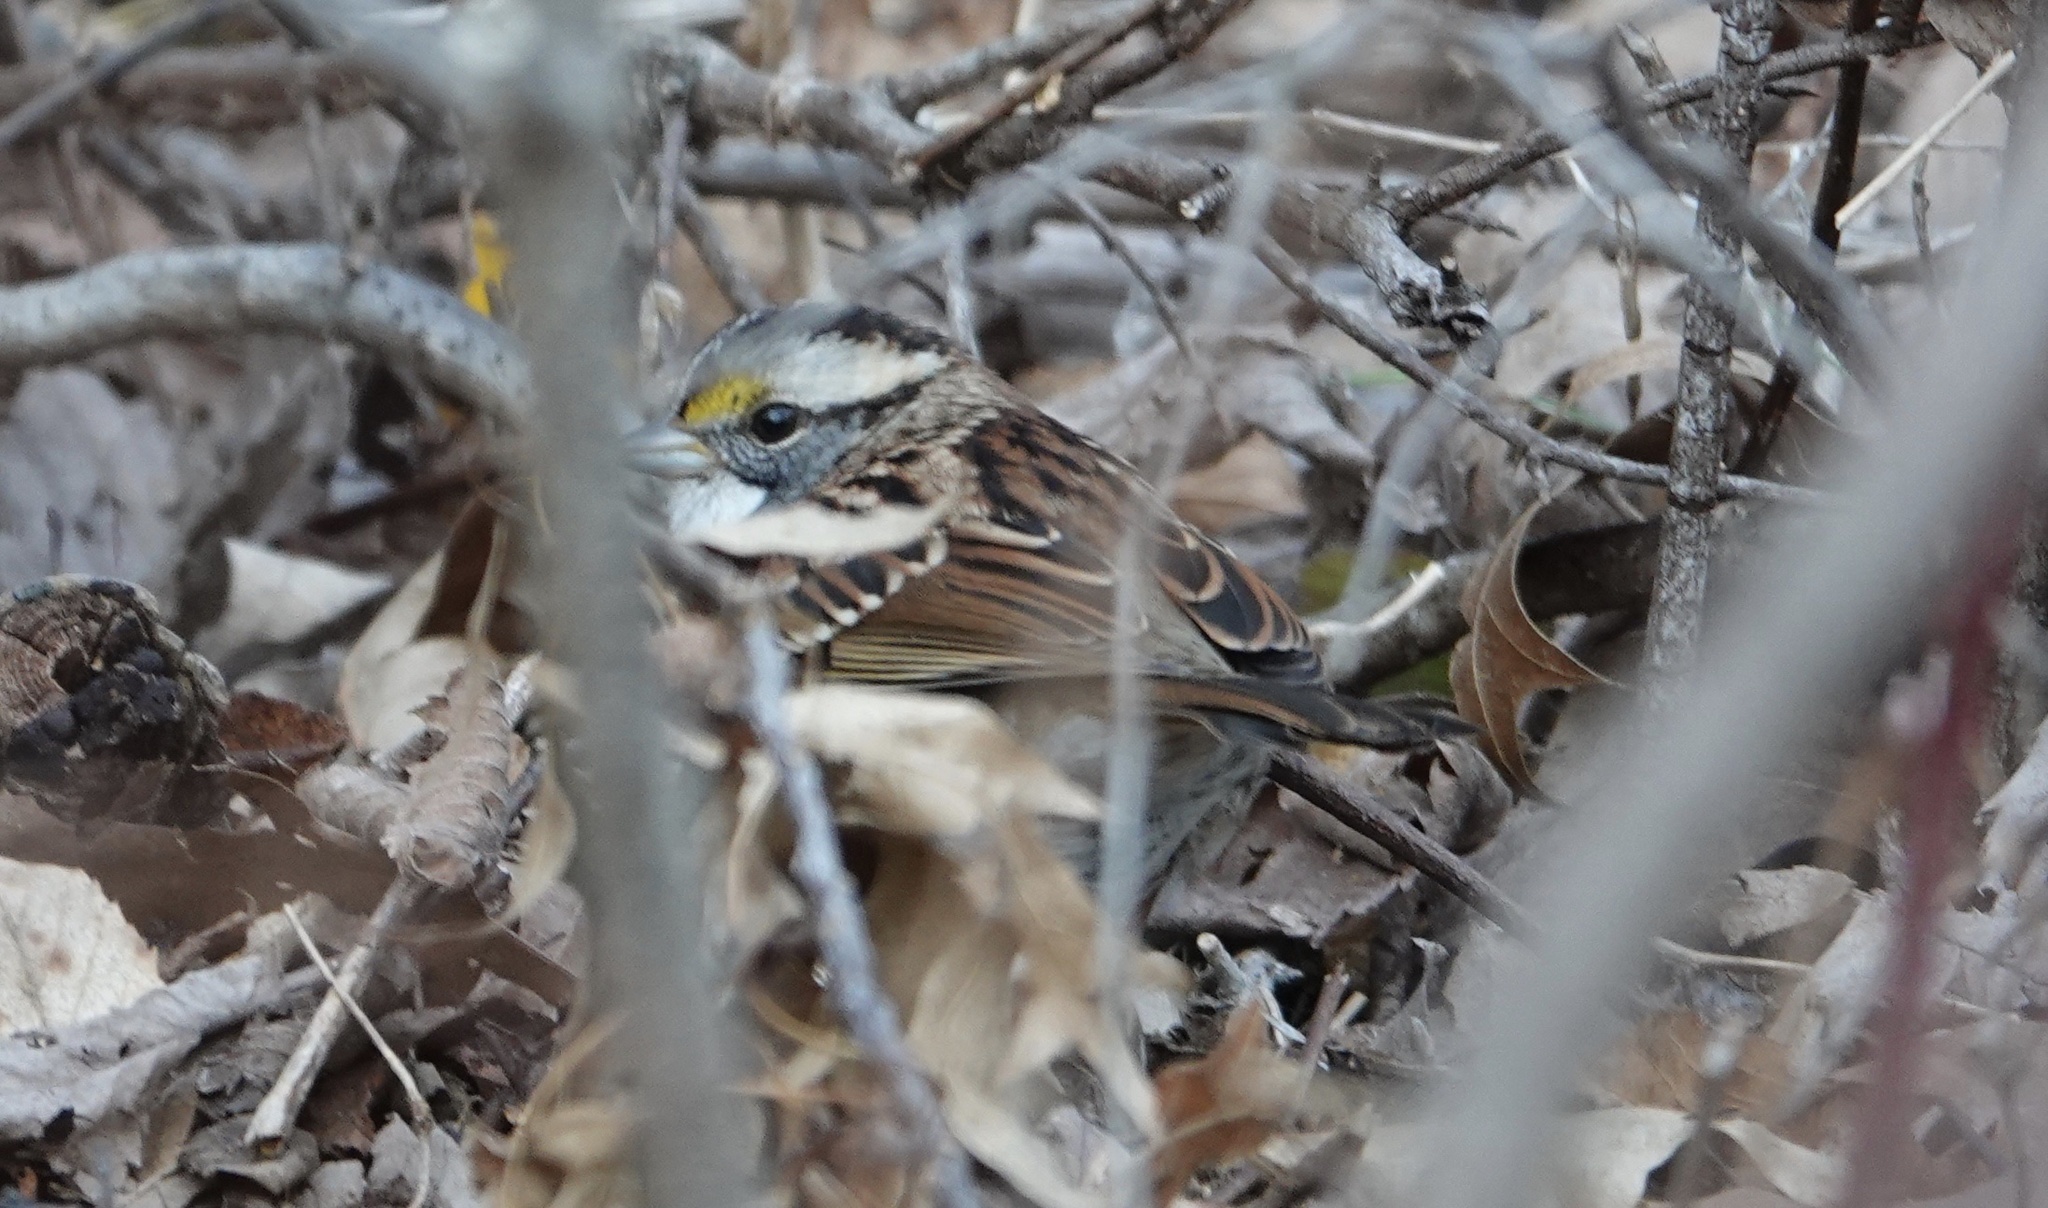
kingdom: Animalia
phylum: Chordata
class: Aves
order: Passeriformes
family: Passerellidae
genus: Zonotrichia
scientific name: Zonotrichia albicollis
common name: White-throated sparrow
